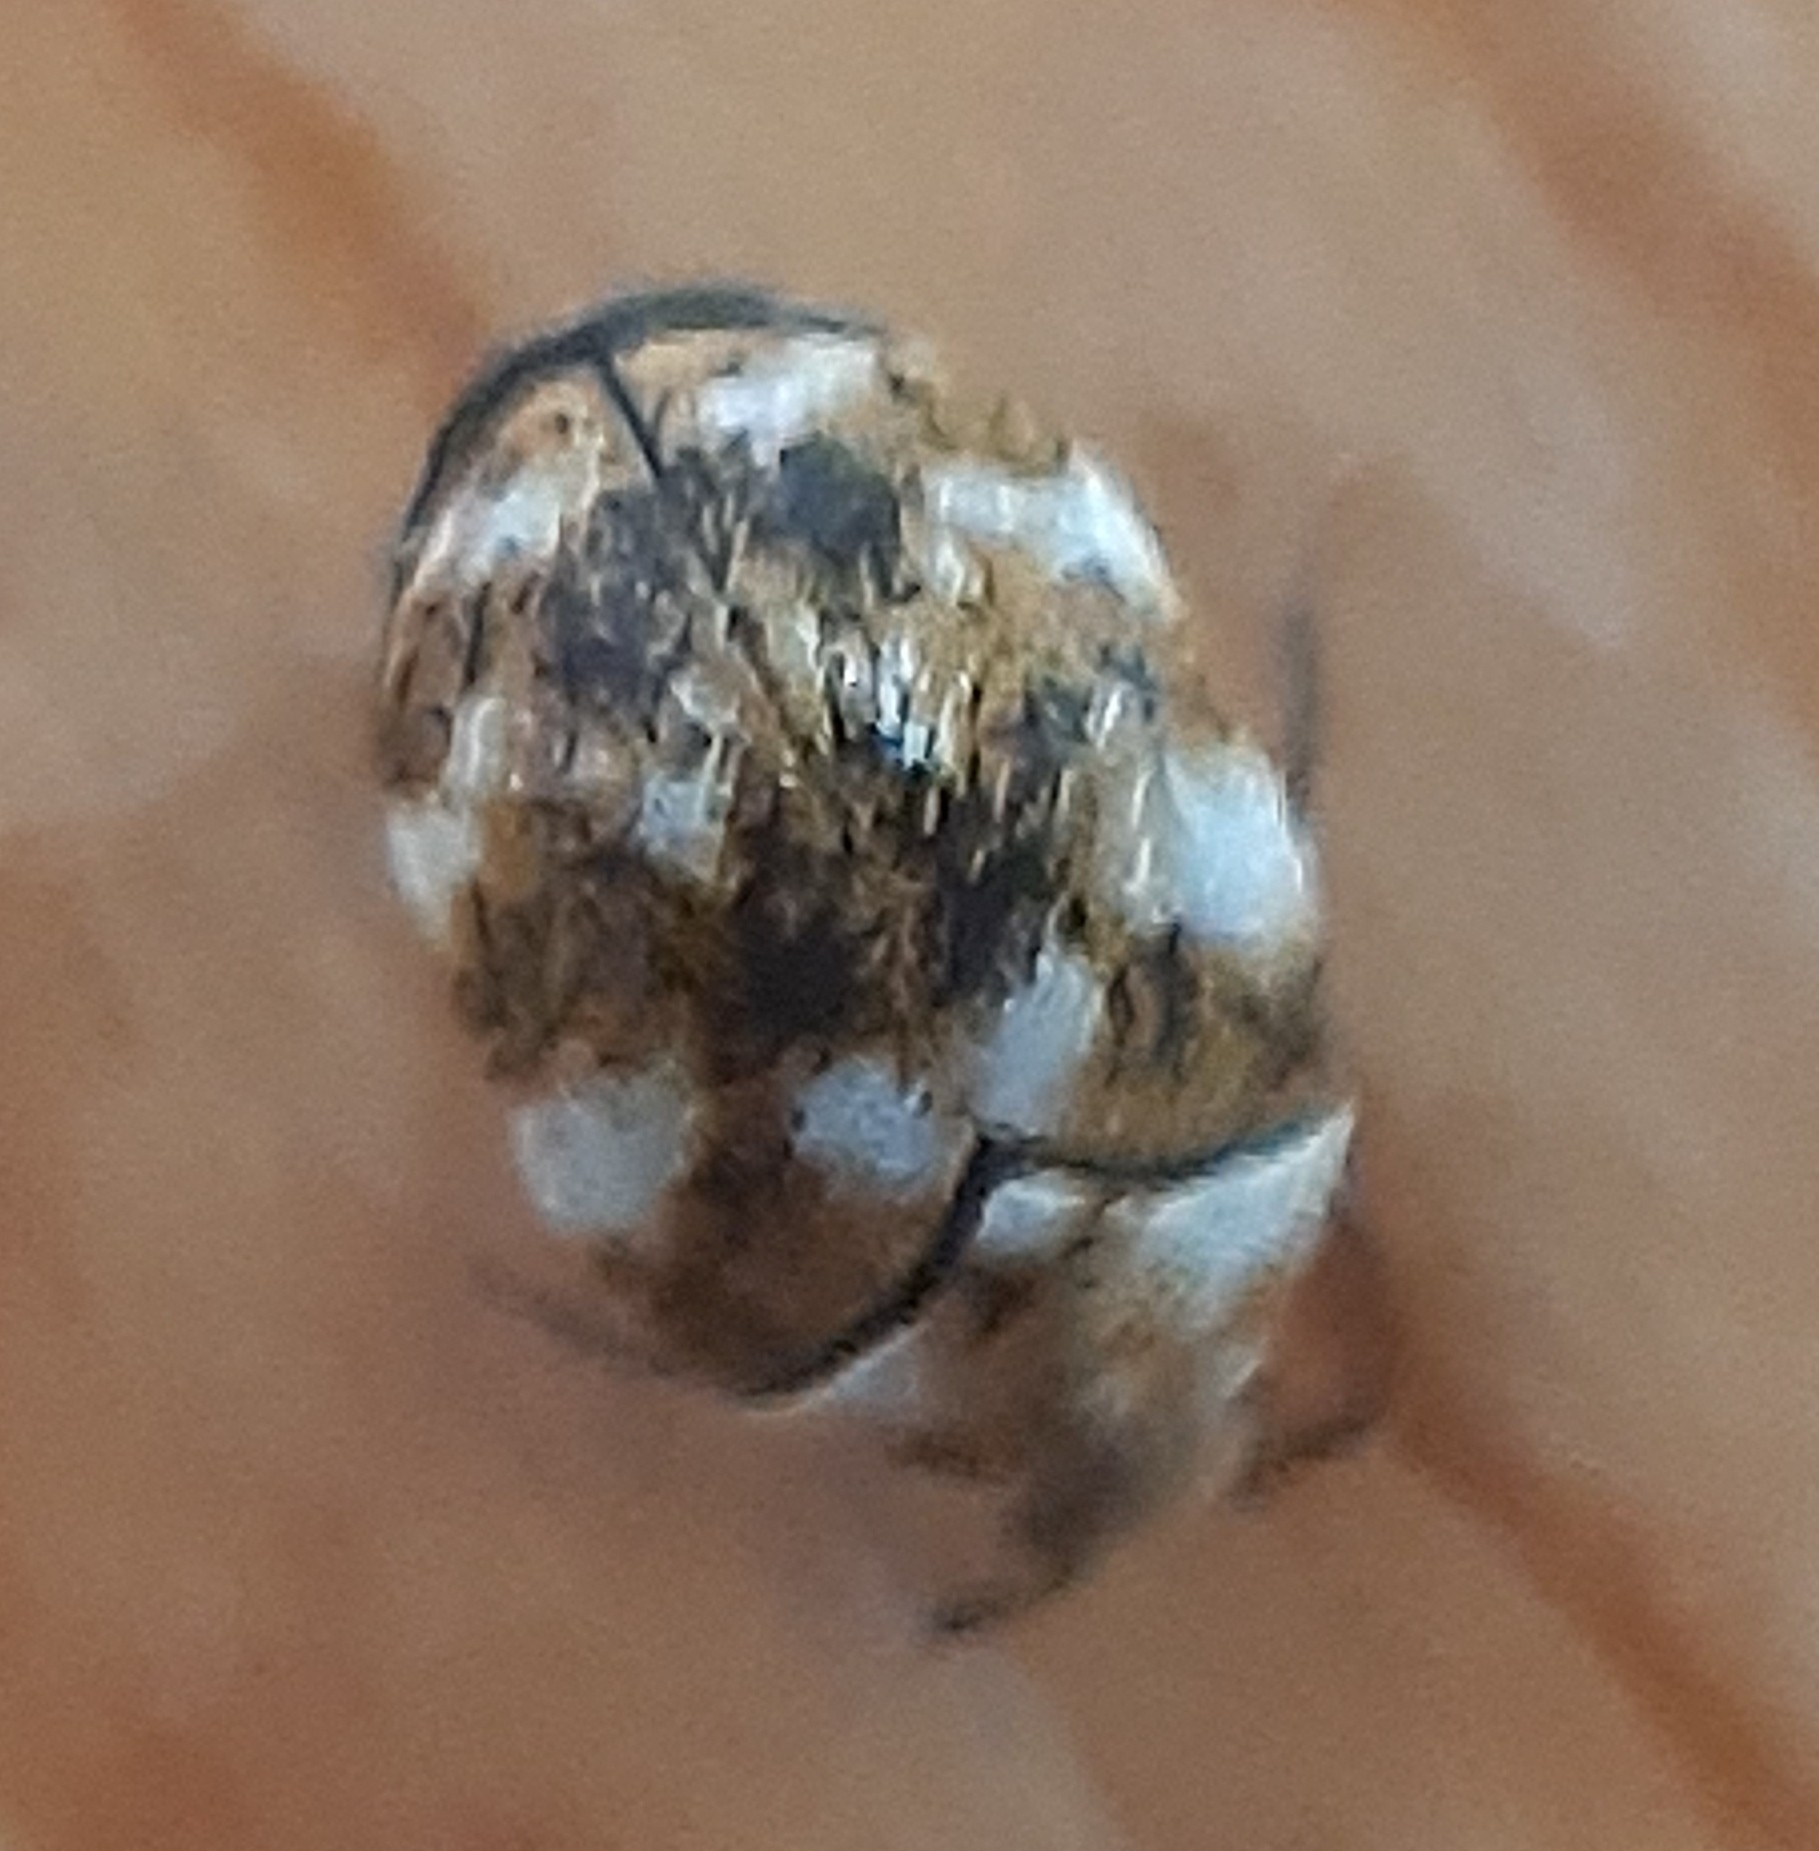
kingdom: Animalia
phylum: Arthropoda
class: Insecta
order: Coleoptera
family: Dermestidae
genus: Anthrenus
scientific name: Anthrenus verbasci
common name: Varied carpet beetle
